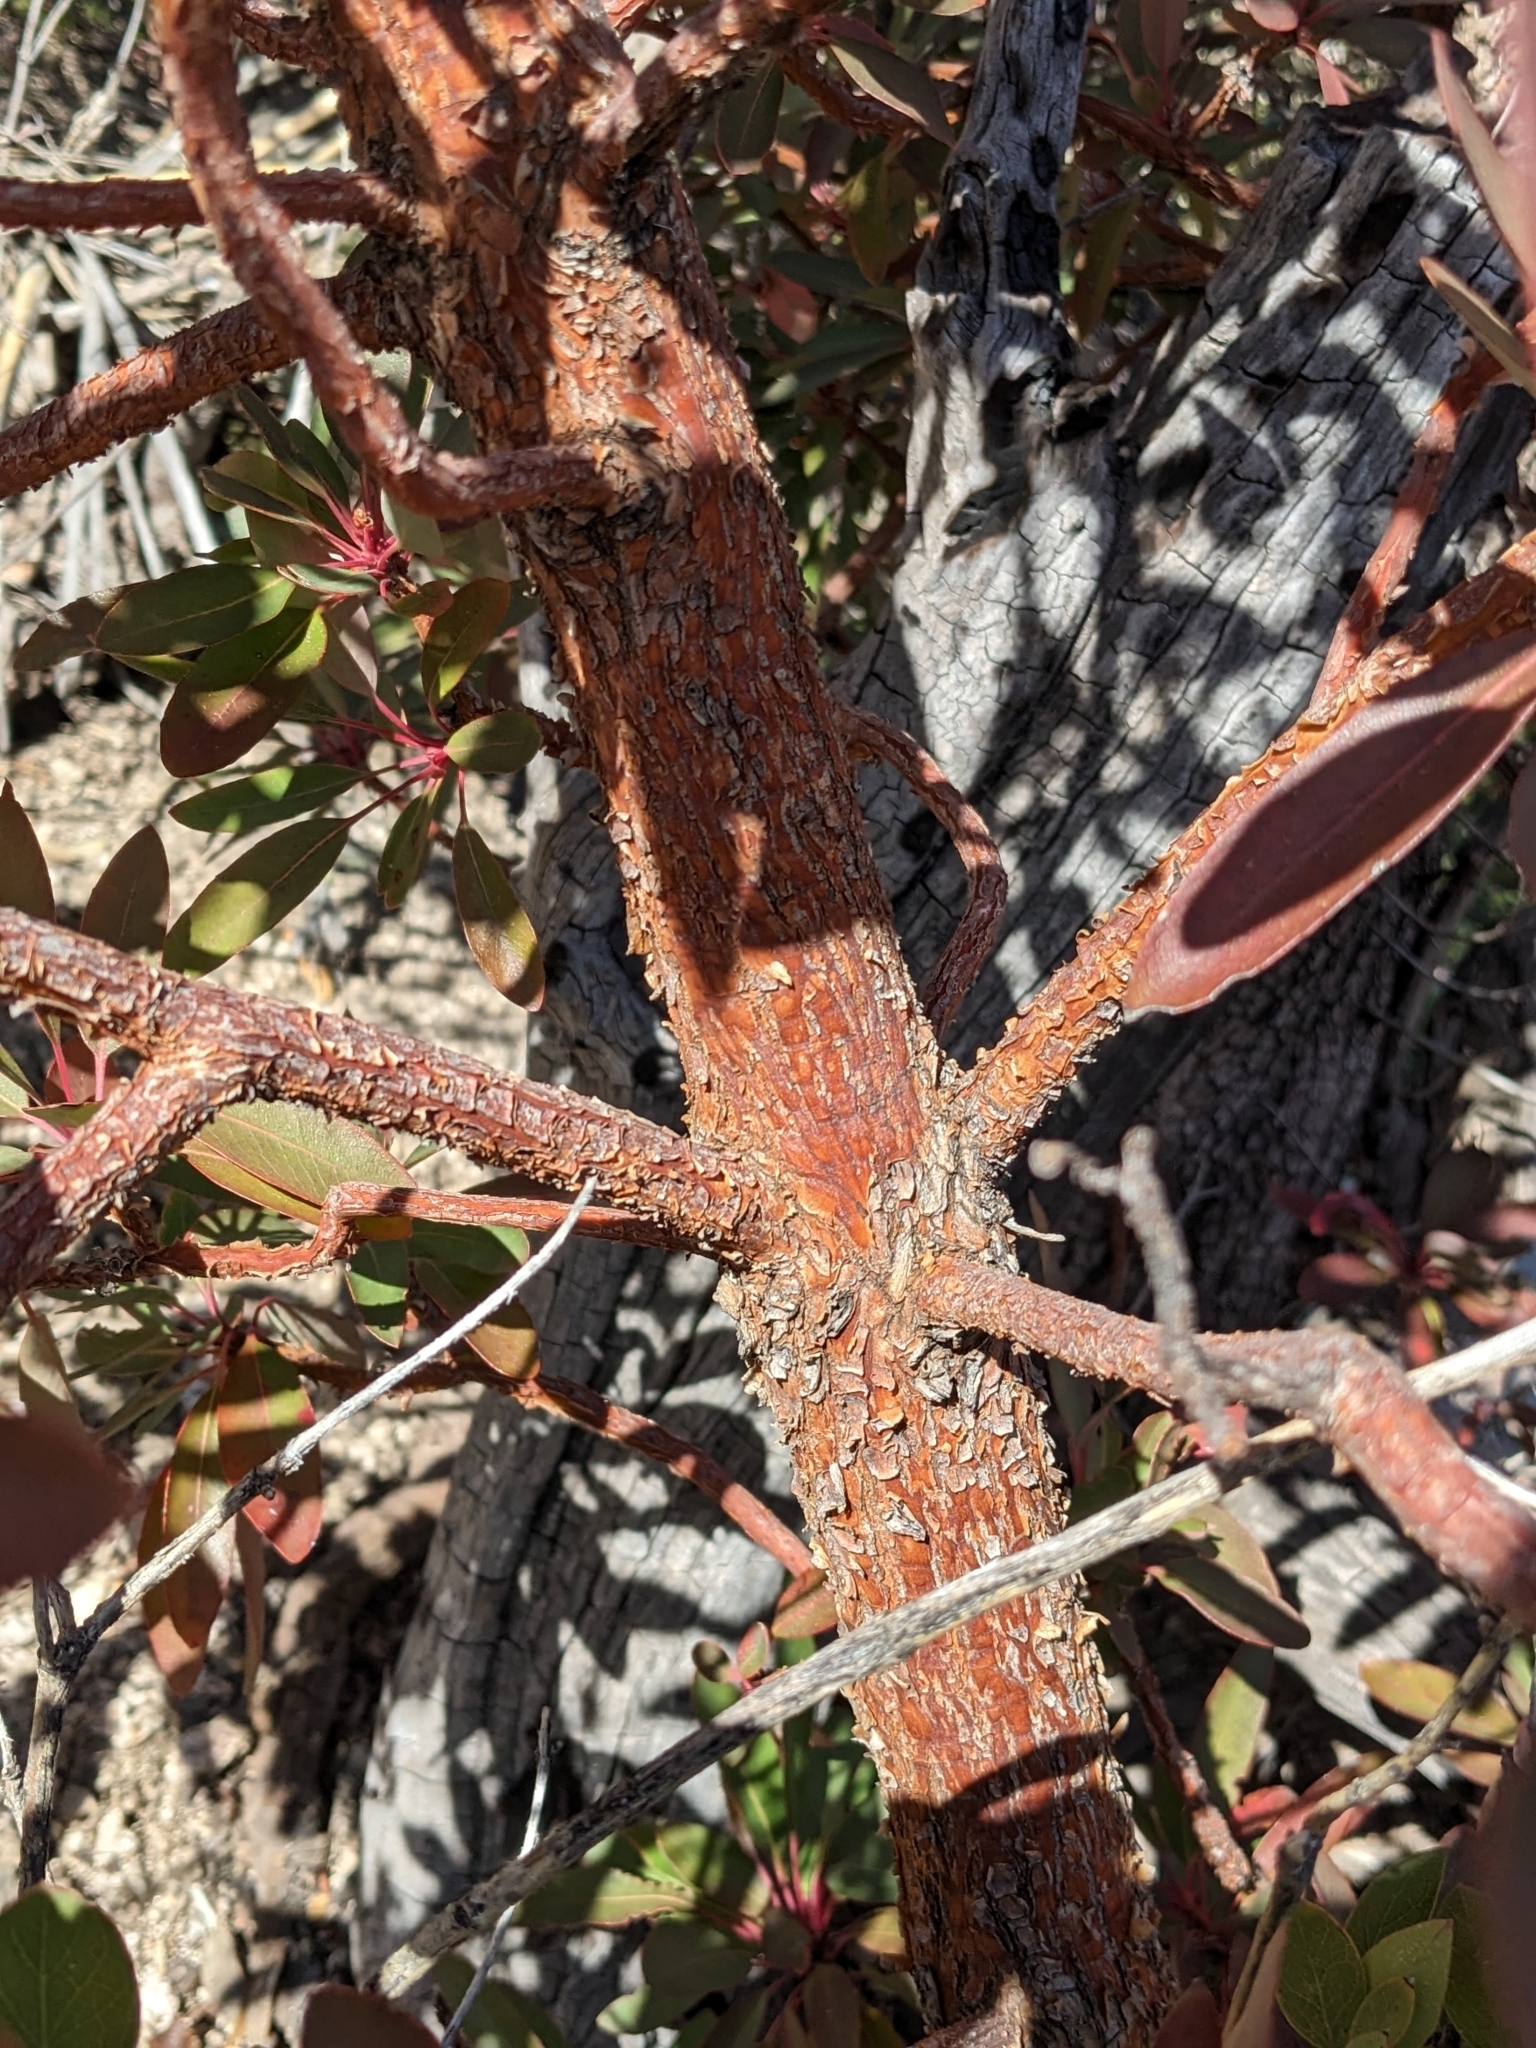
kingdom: Plantae
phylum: Tracheophyta
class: Magnoliopsida
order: Ericales
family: Ericaceae
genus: Arbutus
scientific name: Arbutus arizonica
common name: Arizona madrone
